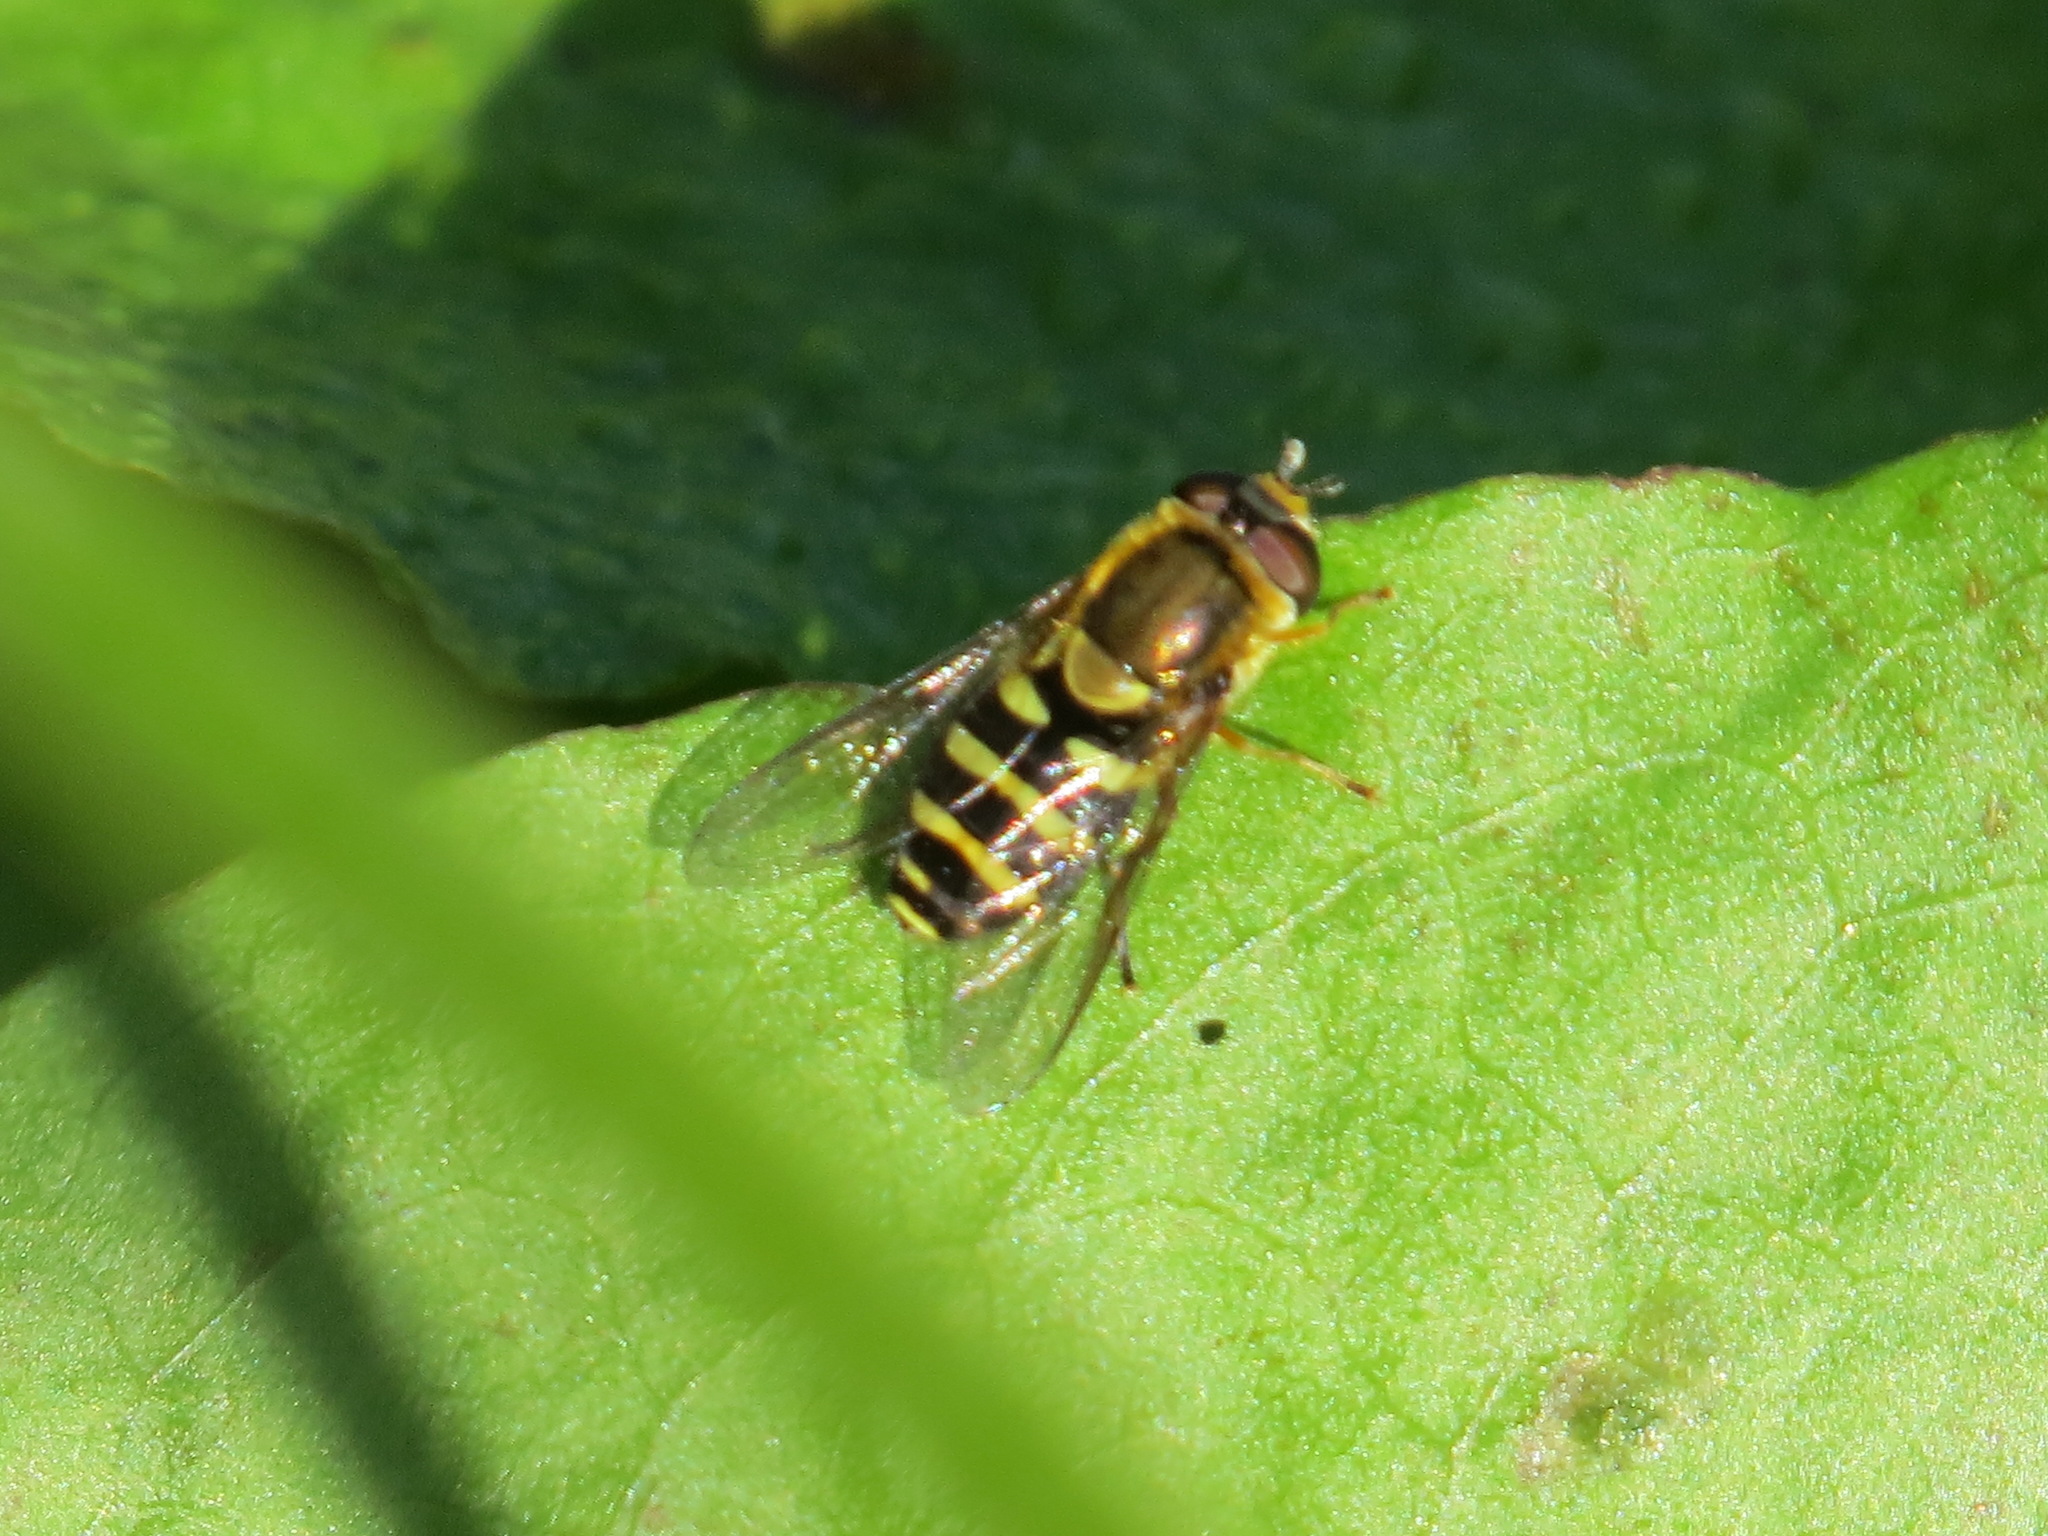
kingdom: Animalia
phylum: Arthropoda
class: Insecta
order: Diptera
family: Syrphidae
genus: Syrphus
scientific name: Syrphus opinator
